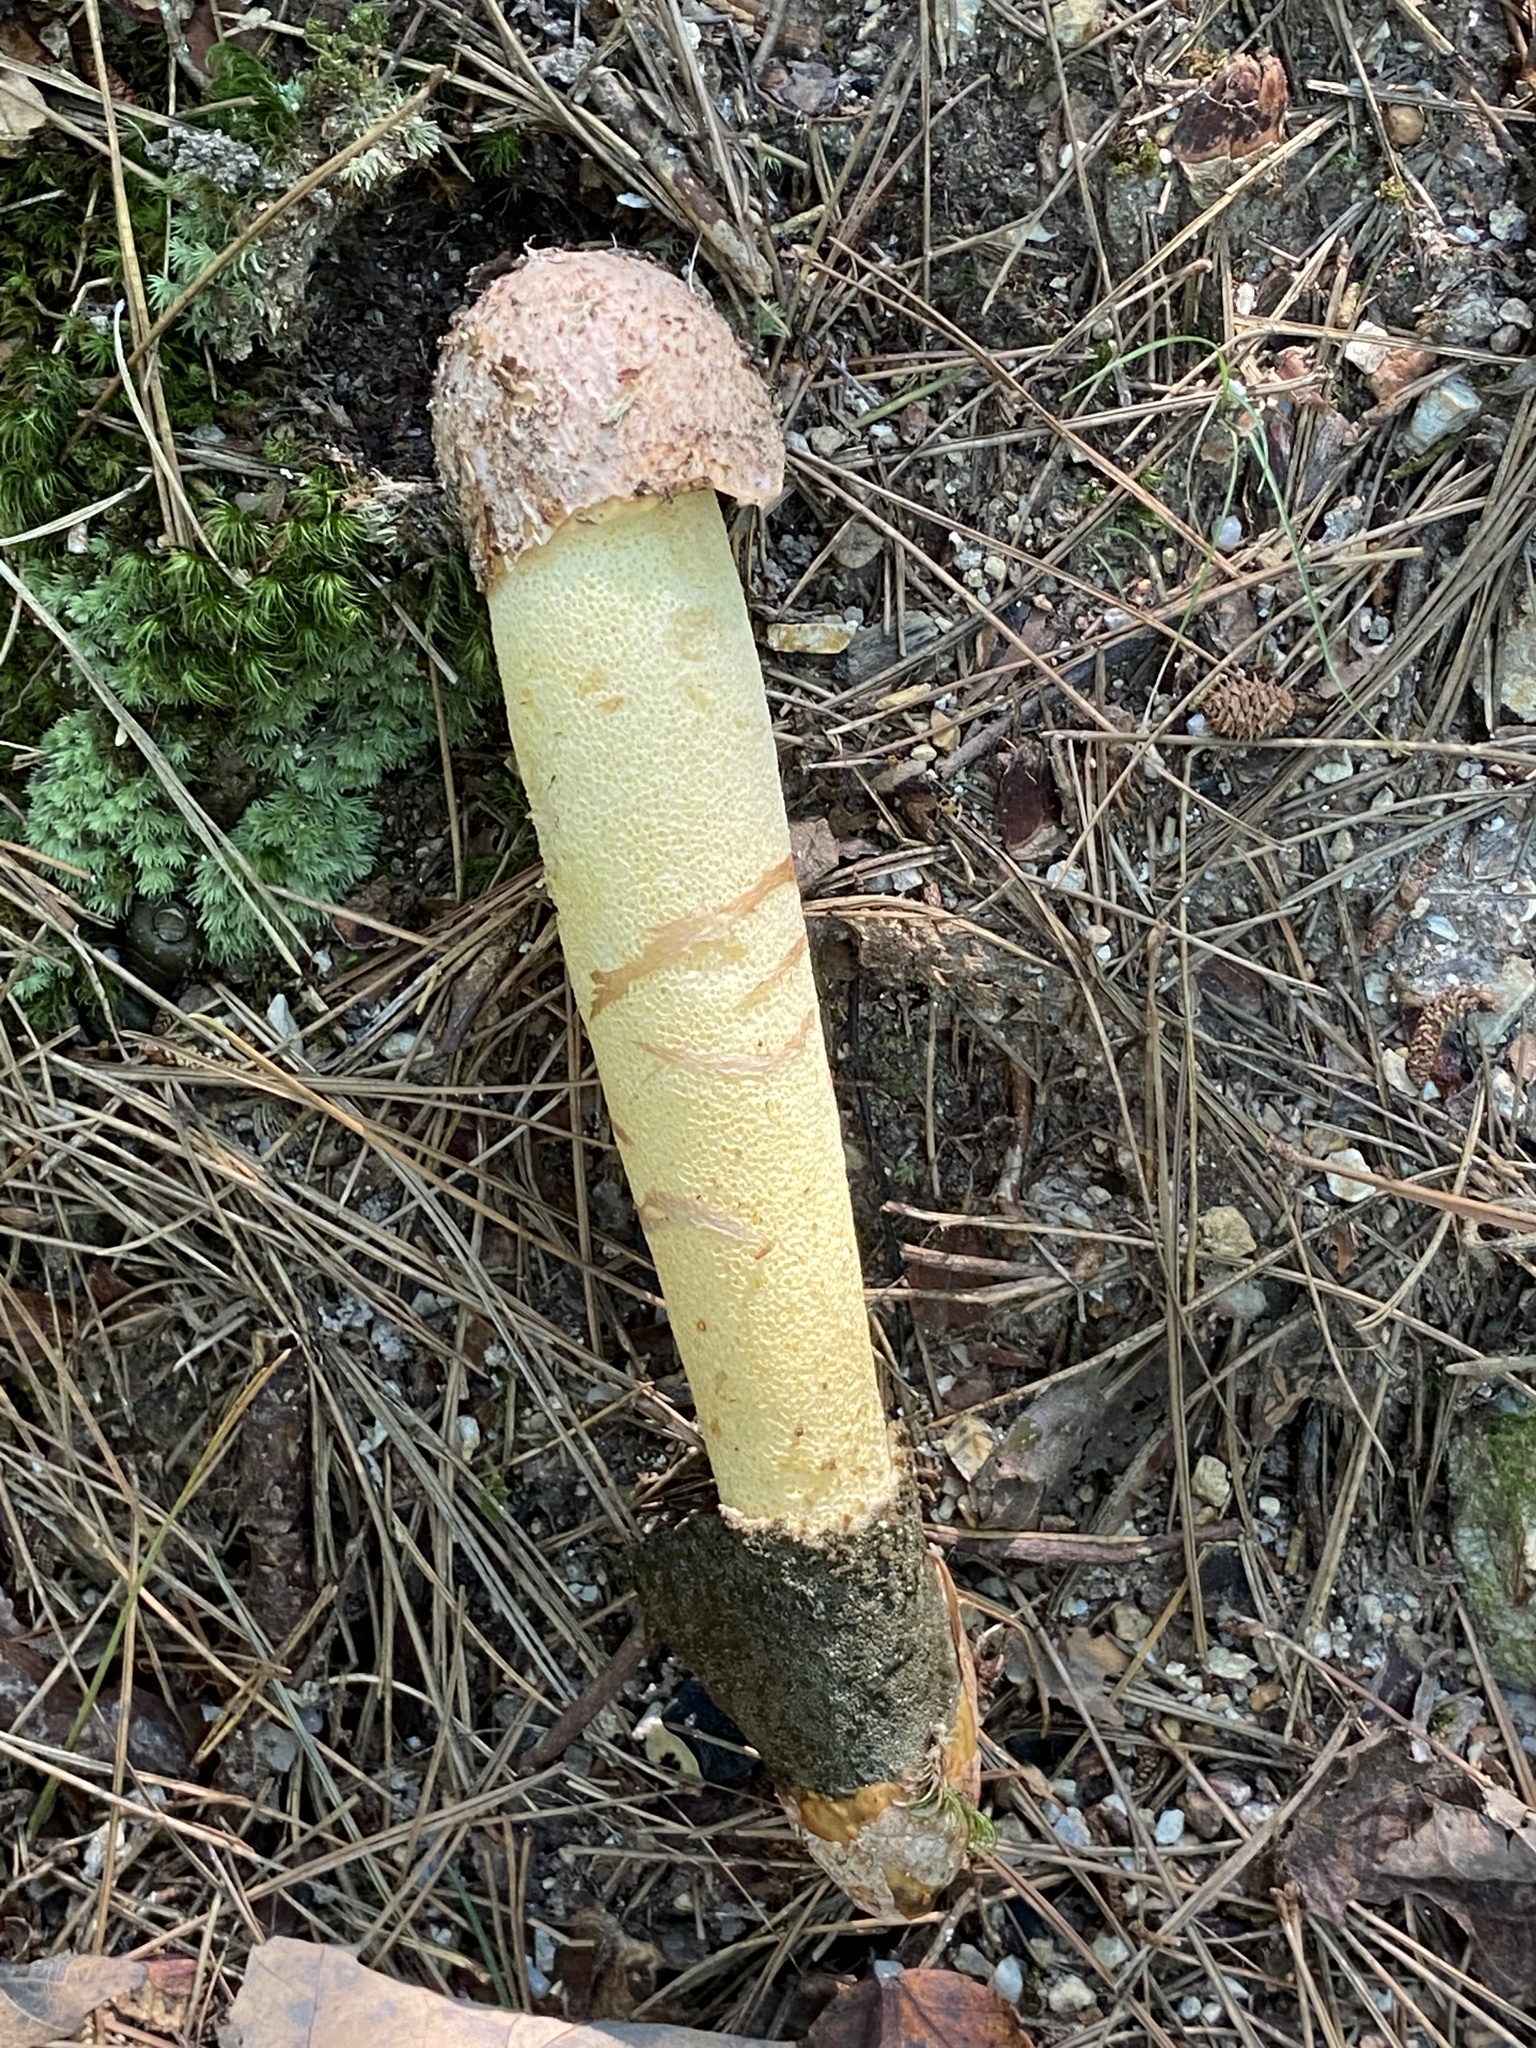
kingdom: Fungi
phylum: Basidiomycota
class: Agaricomycetes
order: Phallales
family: Phallaceae
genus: Phallus
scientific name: Phallus ravenelii
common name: Ravenel's stinkhorn
